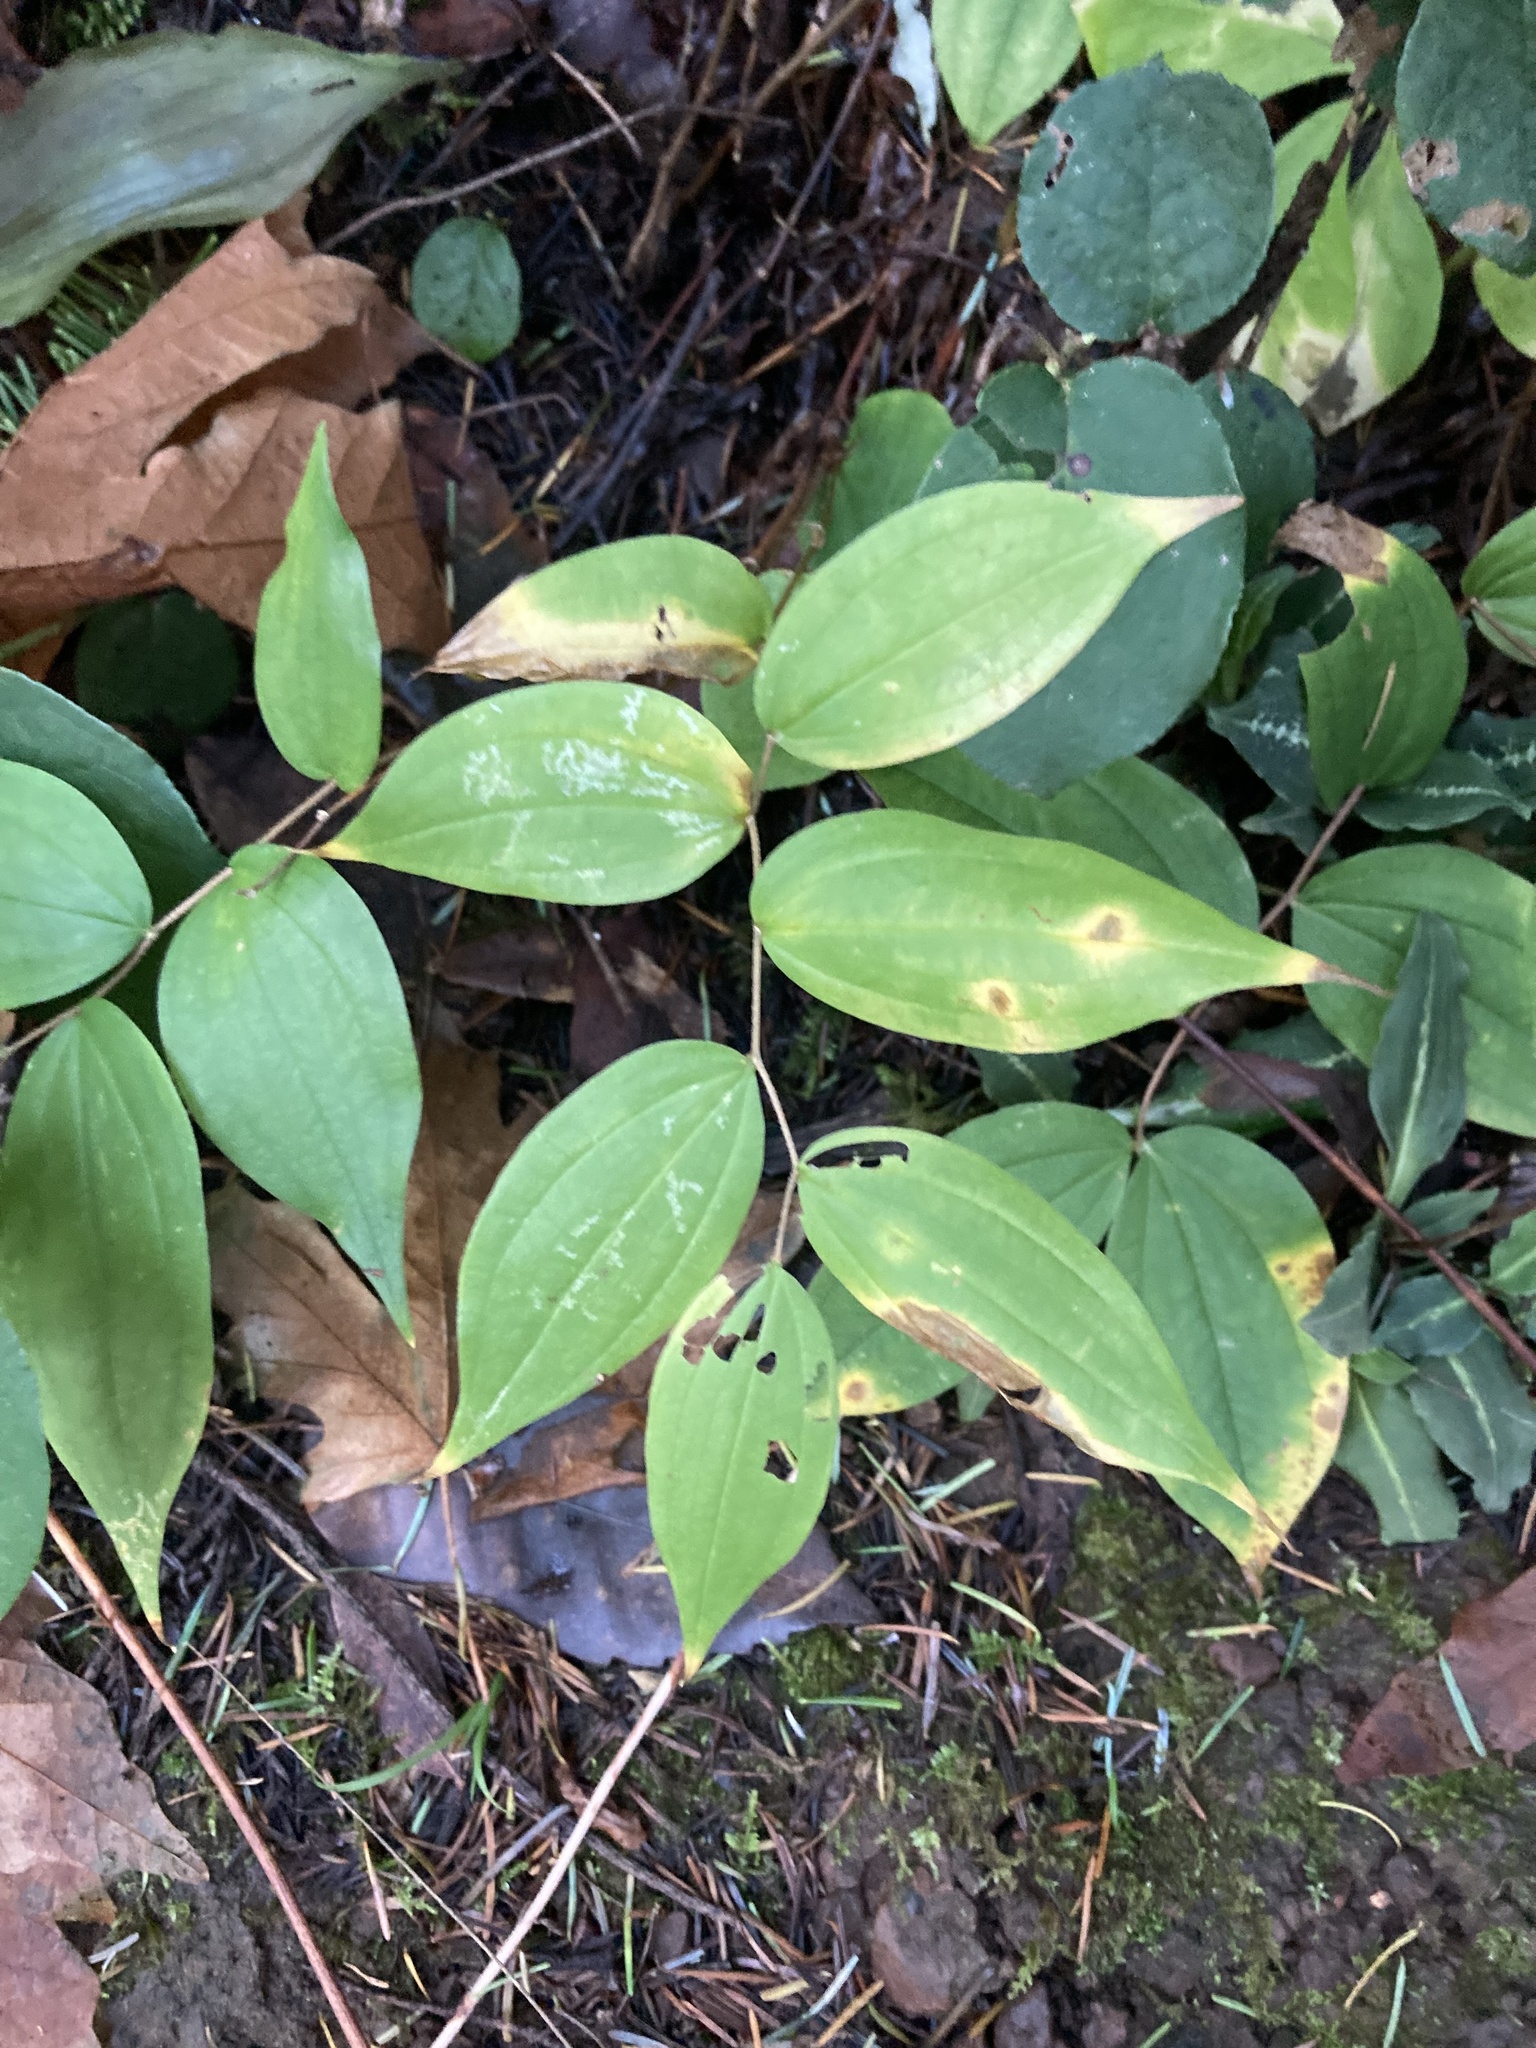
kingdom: Plantae
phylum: Tracheophyta
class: Liliopsida
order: Liliales
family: Liliaceae
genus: Prosartes
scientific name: Prosartes smithii
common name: Fairy-lantern
